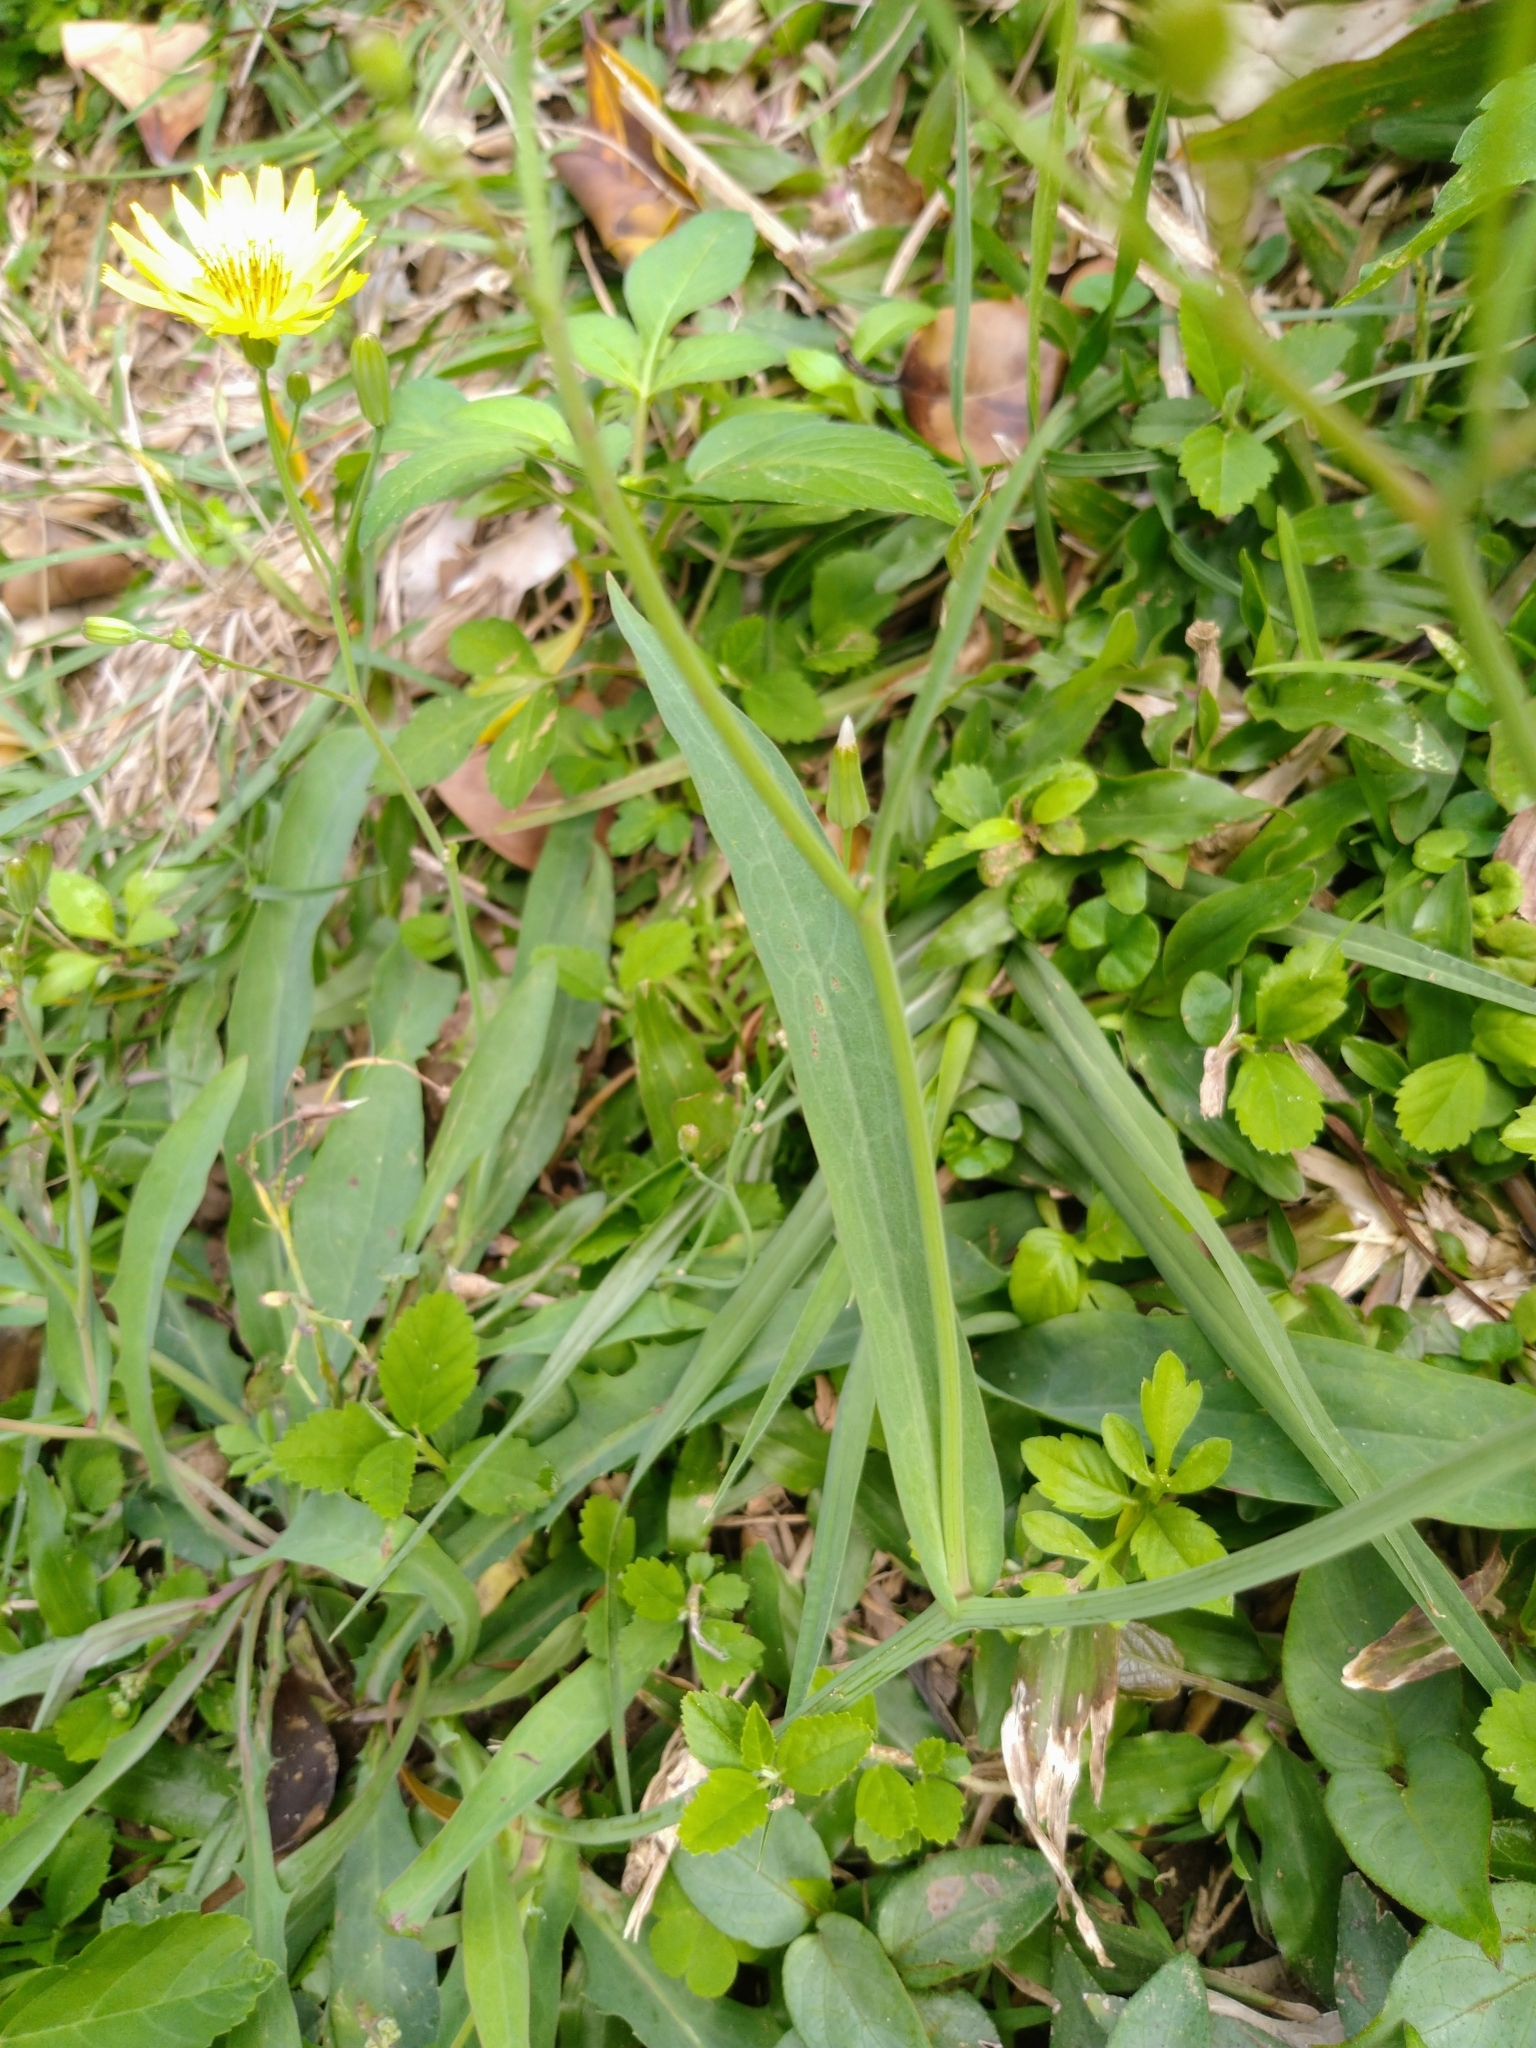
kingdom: Plantae
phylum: Tracheophyta
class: Magnoliopsida
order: Asterales
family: Asteraceae
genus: Ixeris
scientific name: Ixeris chinensis
